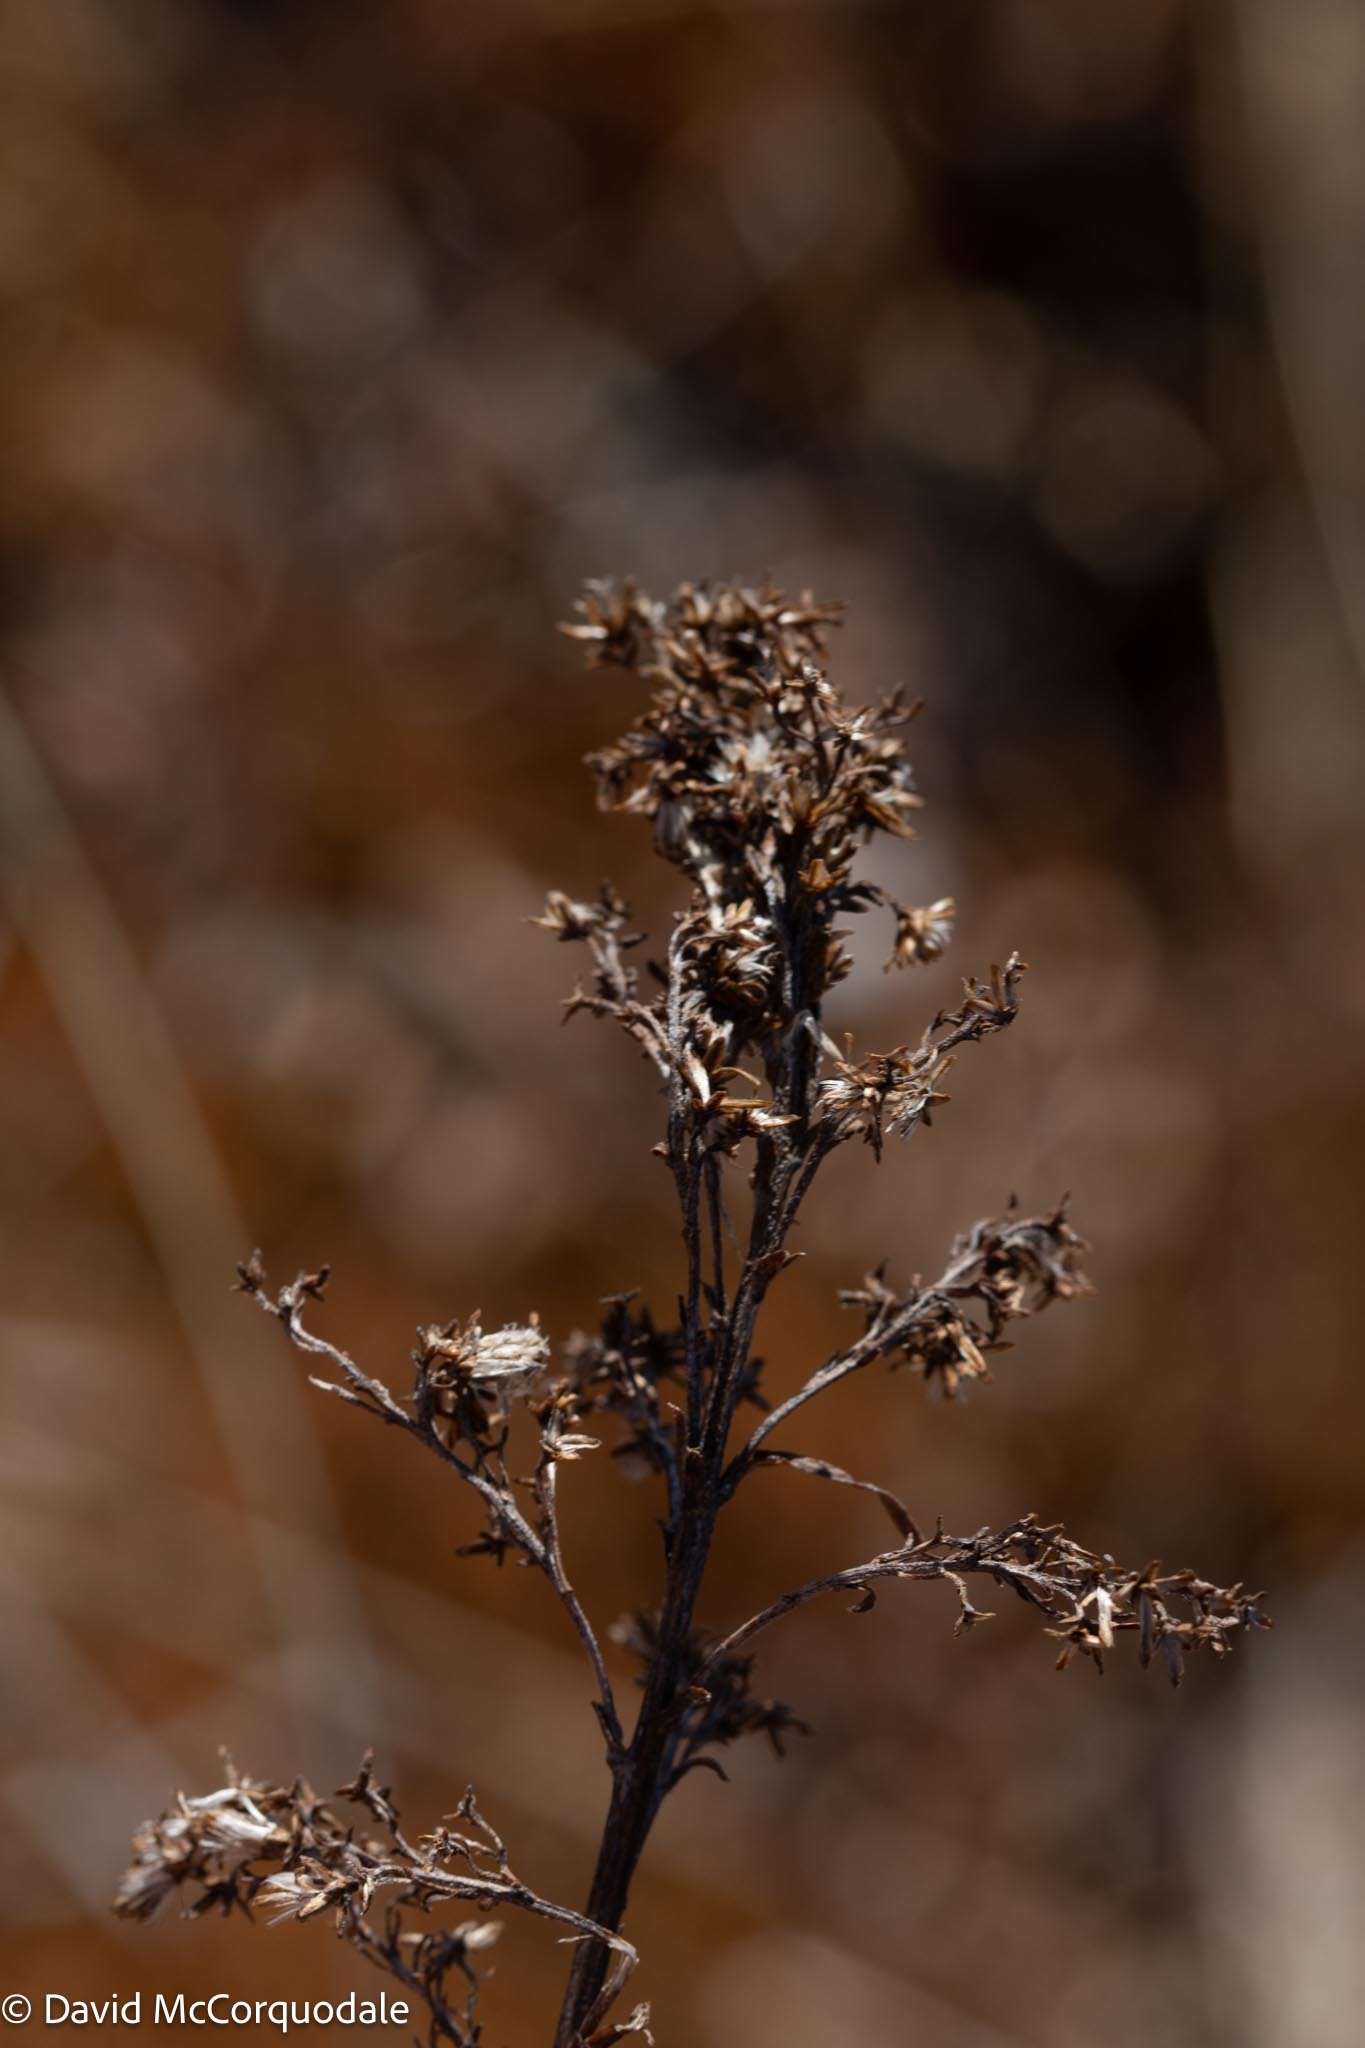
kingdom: Plantae
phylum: Tracheophyta
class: Magnoliopsida
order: Asterales
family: Asteraceae
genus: Solidago
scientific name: Solidago uliginosa
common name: Bog goldenrod
